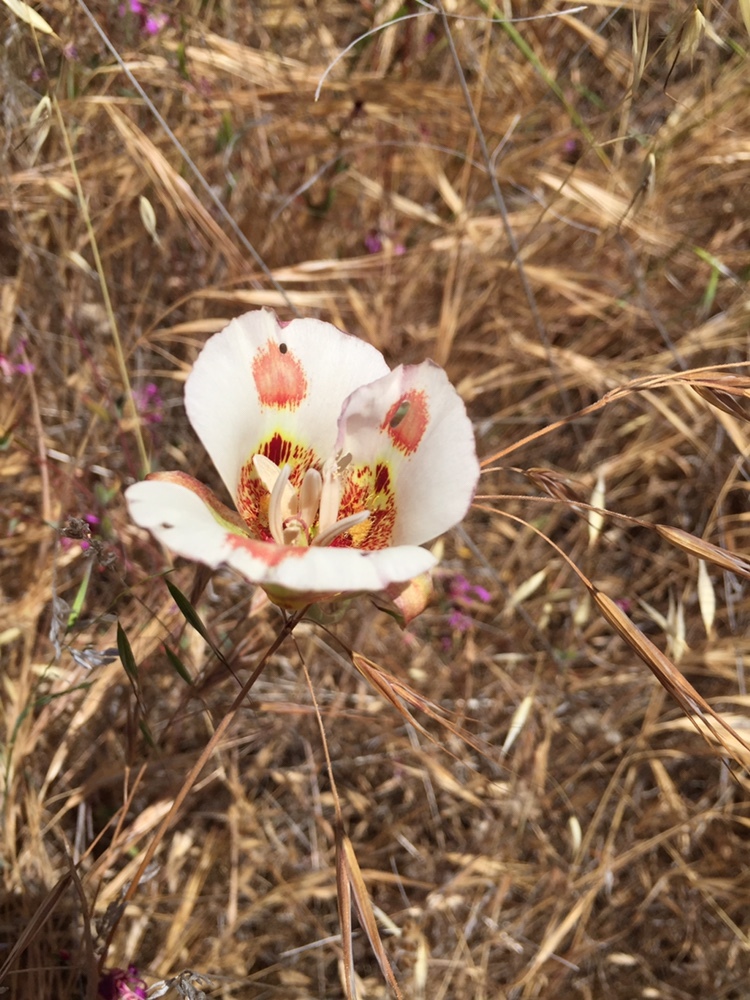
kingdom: Plantae
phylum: Tracheophyta
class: Liliopsida
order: Liliales
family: Liliaceae
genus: Calochortus
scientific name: Calochortus venustus
